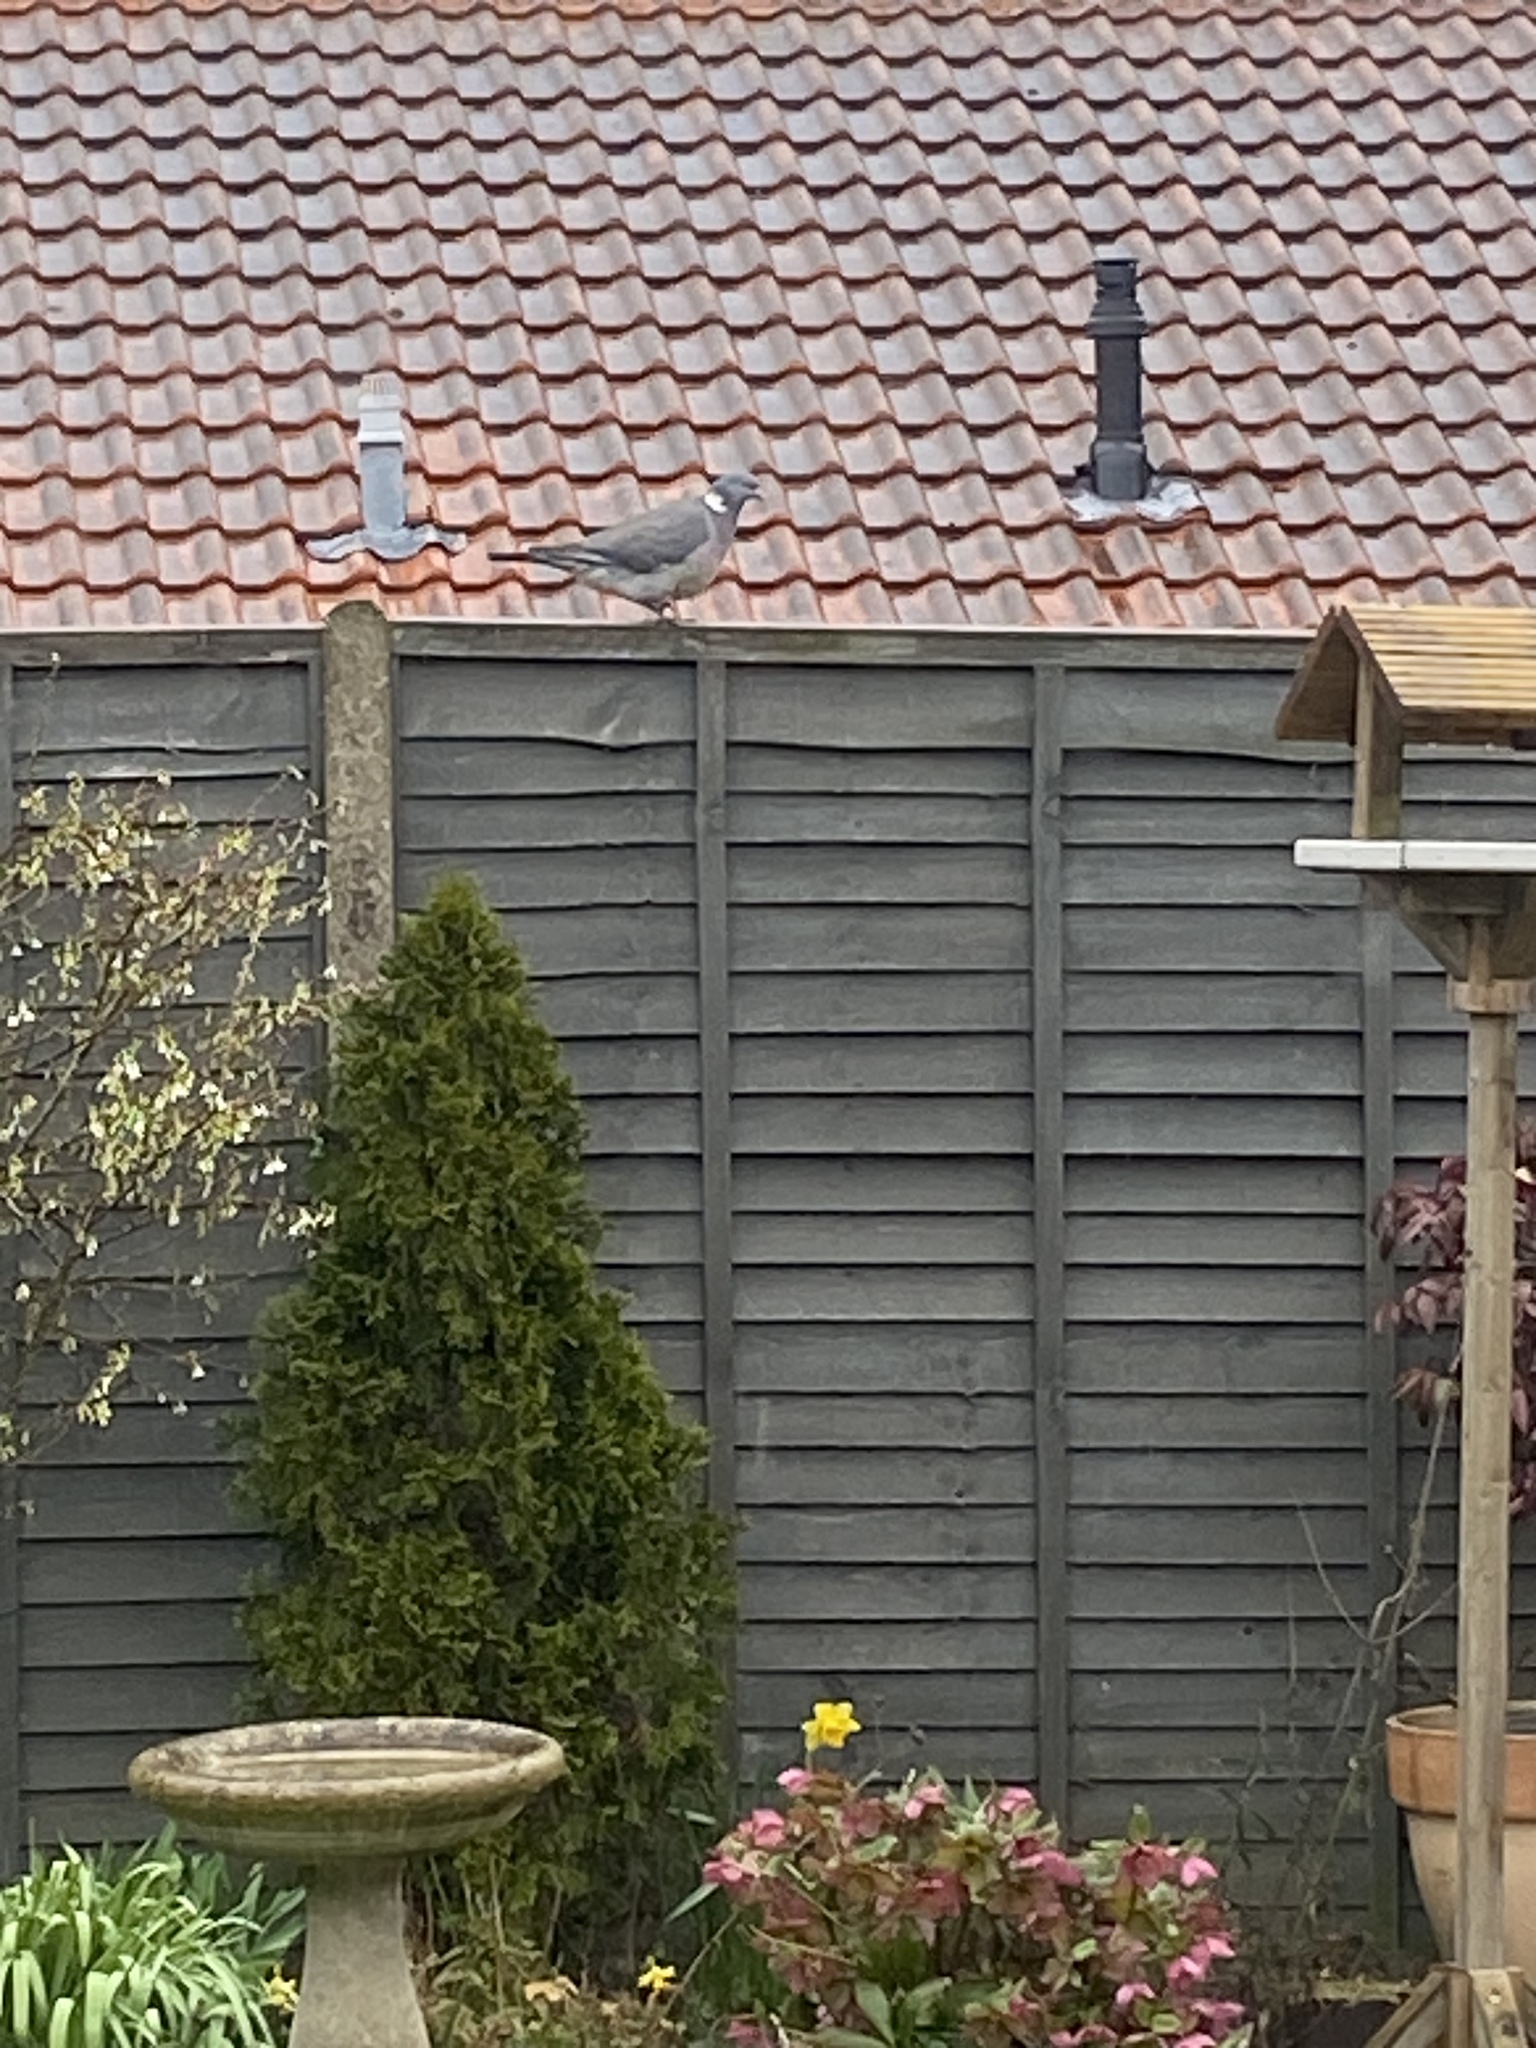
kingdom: Animalia
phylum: Chordata
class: Aves
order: Columbiformes
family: Columbidae
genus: Columba
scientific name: Columba palumbus
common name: Common wood pigeon
